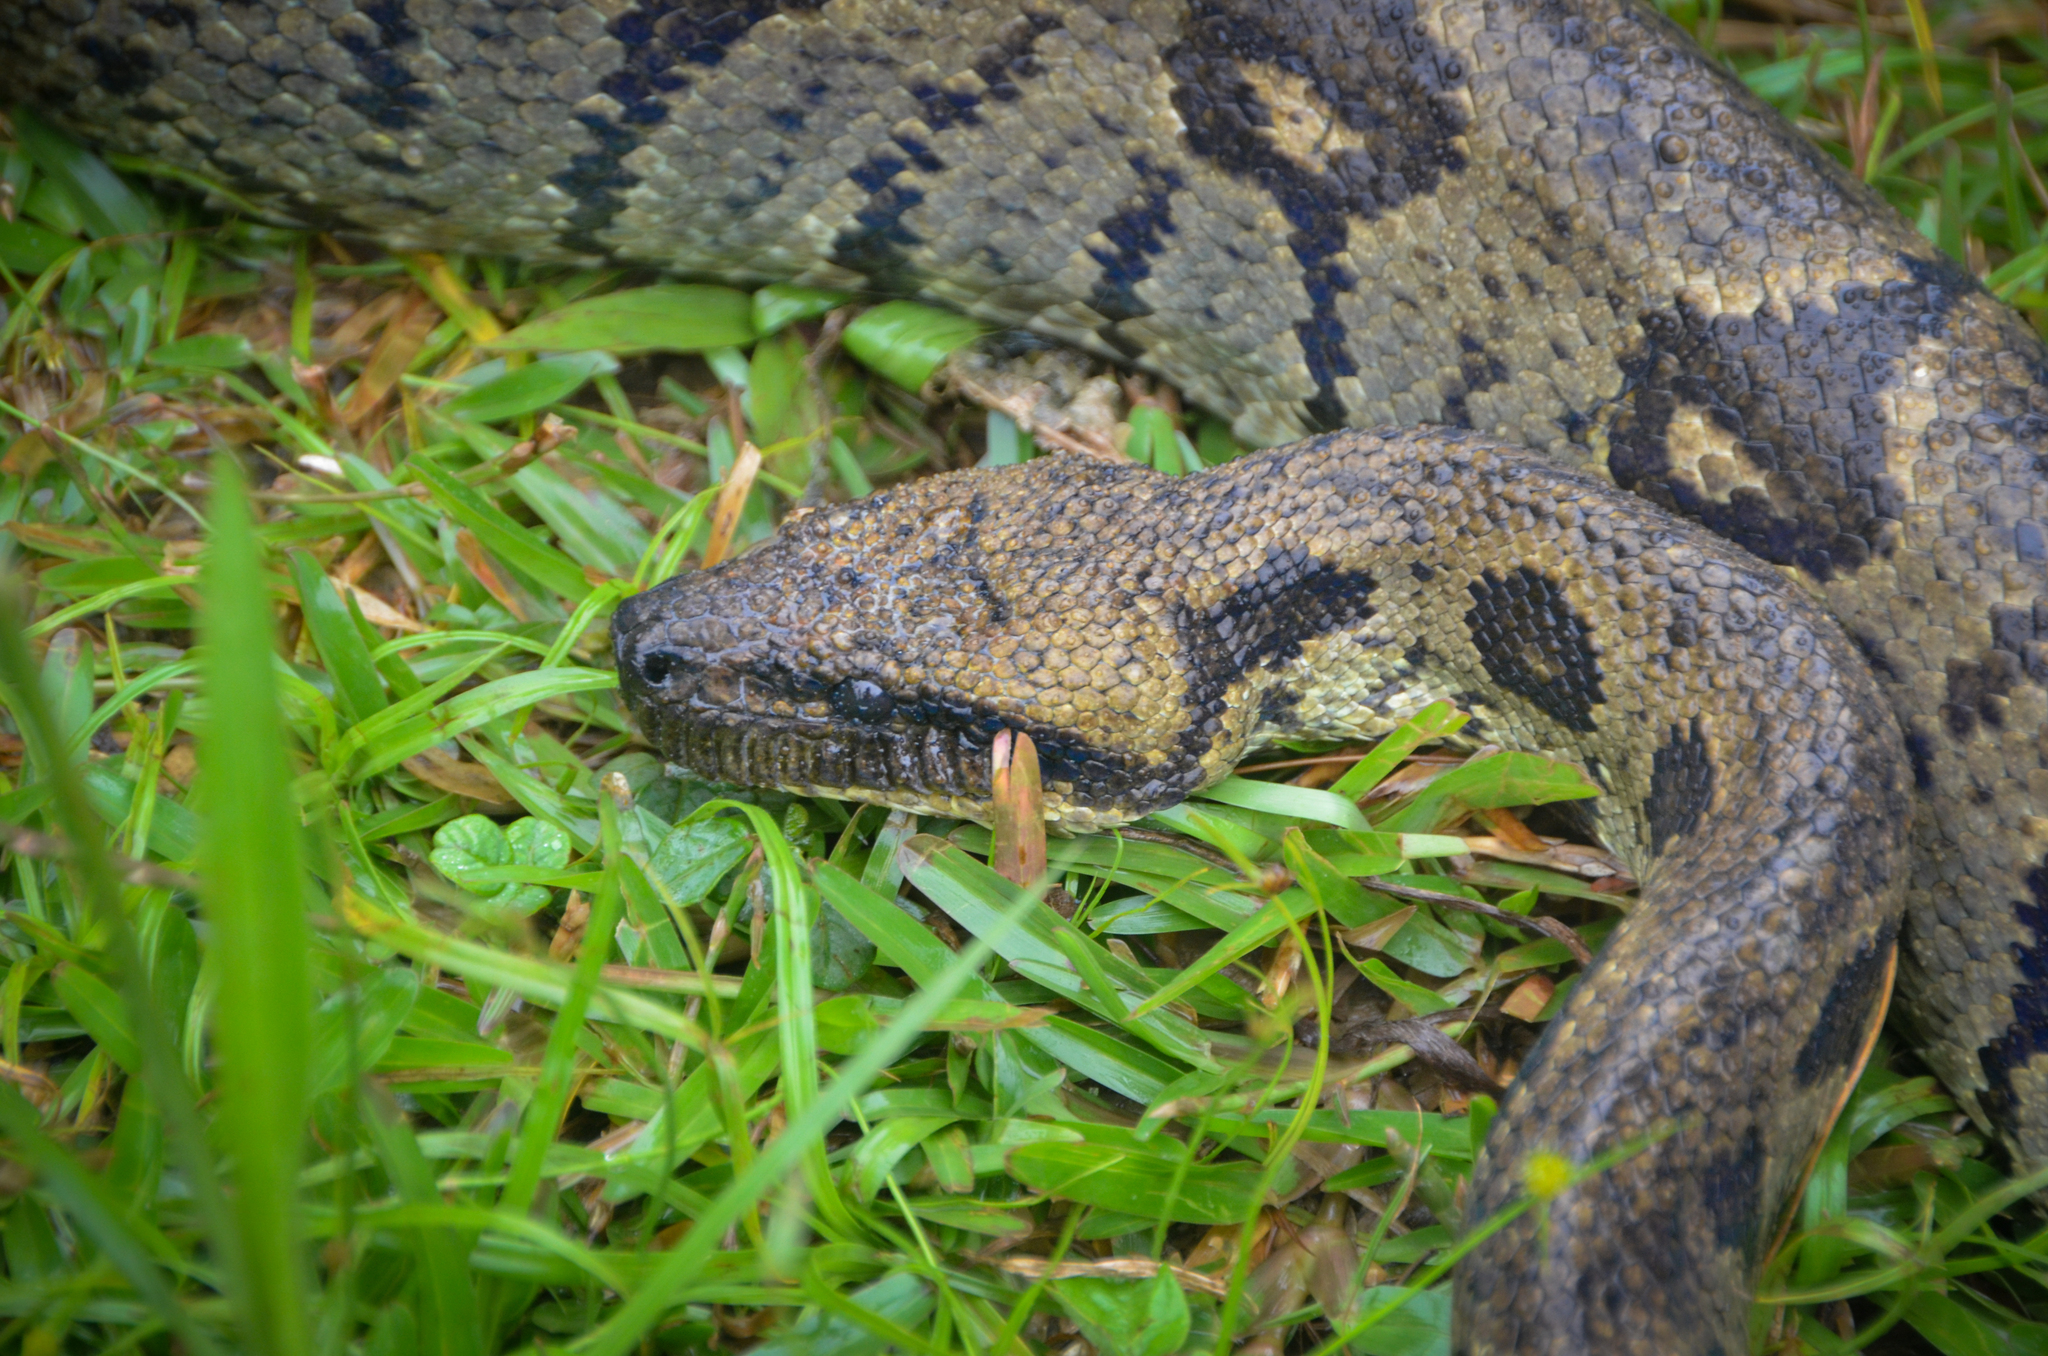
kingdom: Animalia
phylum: Chordata
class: Squamata
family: Boidae
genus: Sanzinia
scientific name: Sanzinia madagascariensis
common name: Madagascar tree boa
